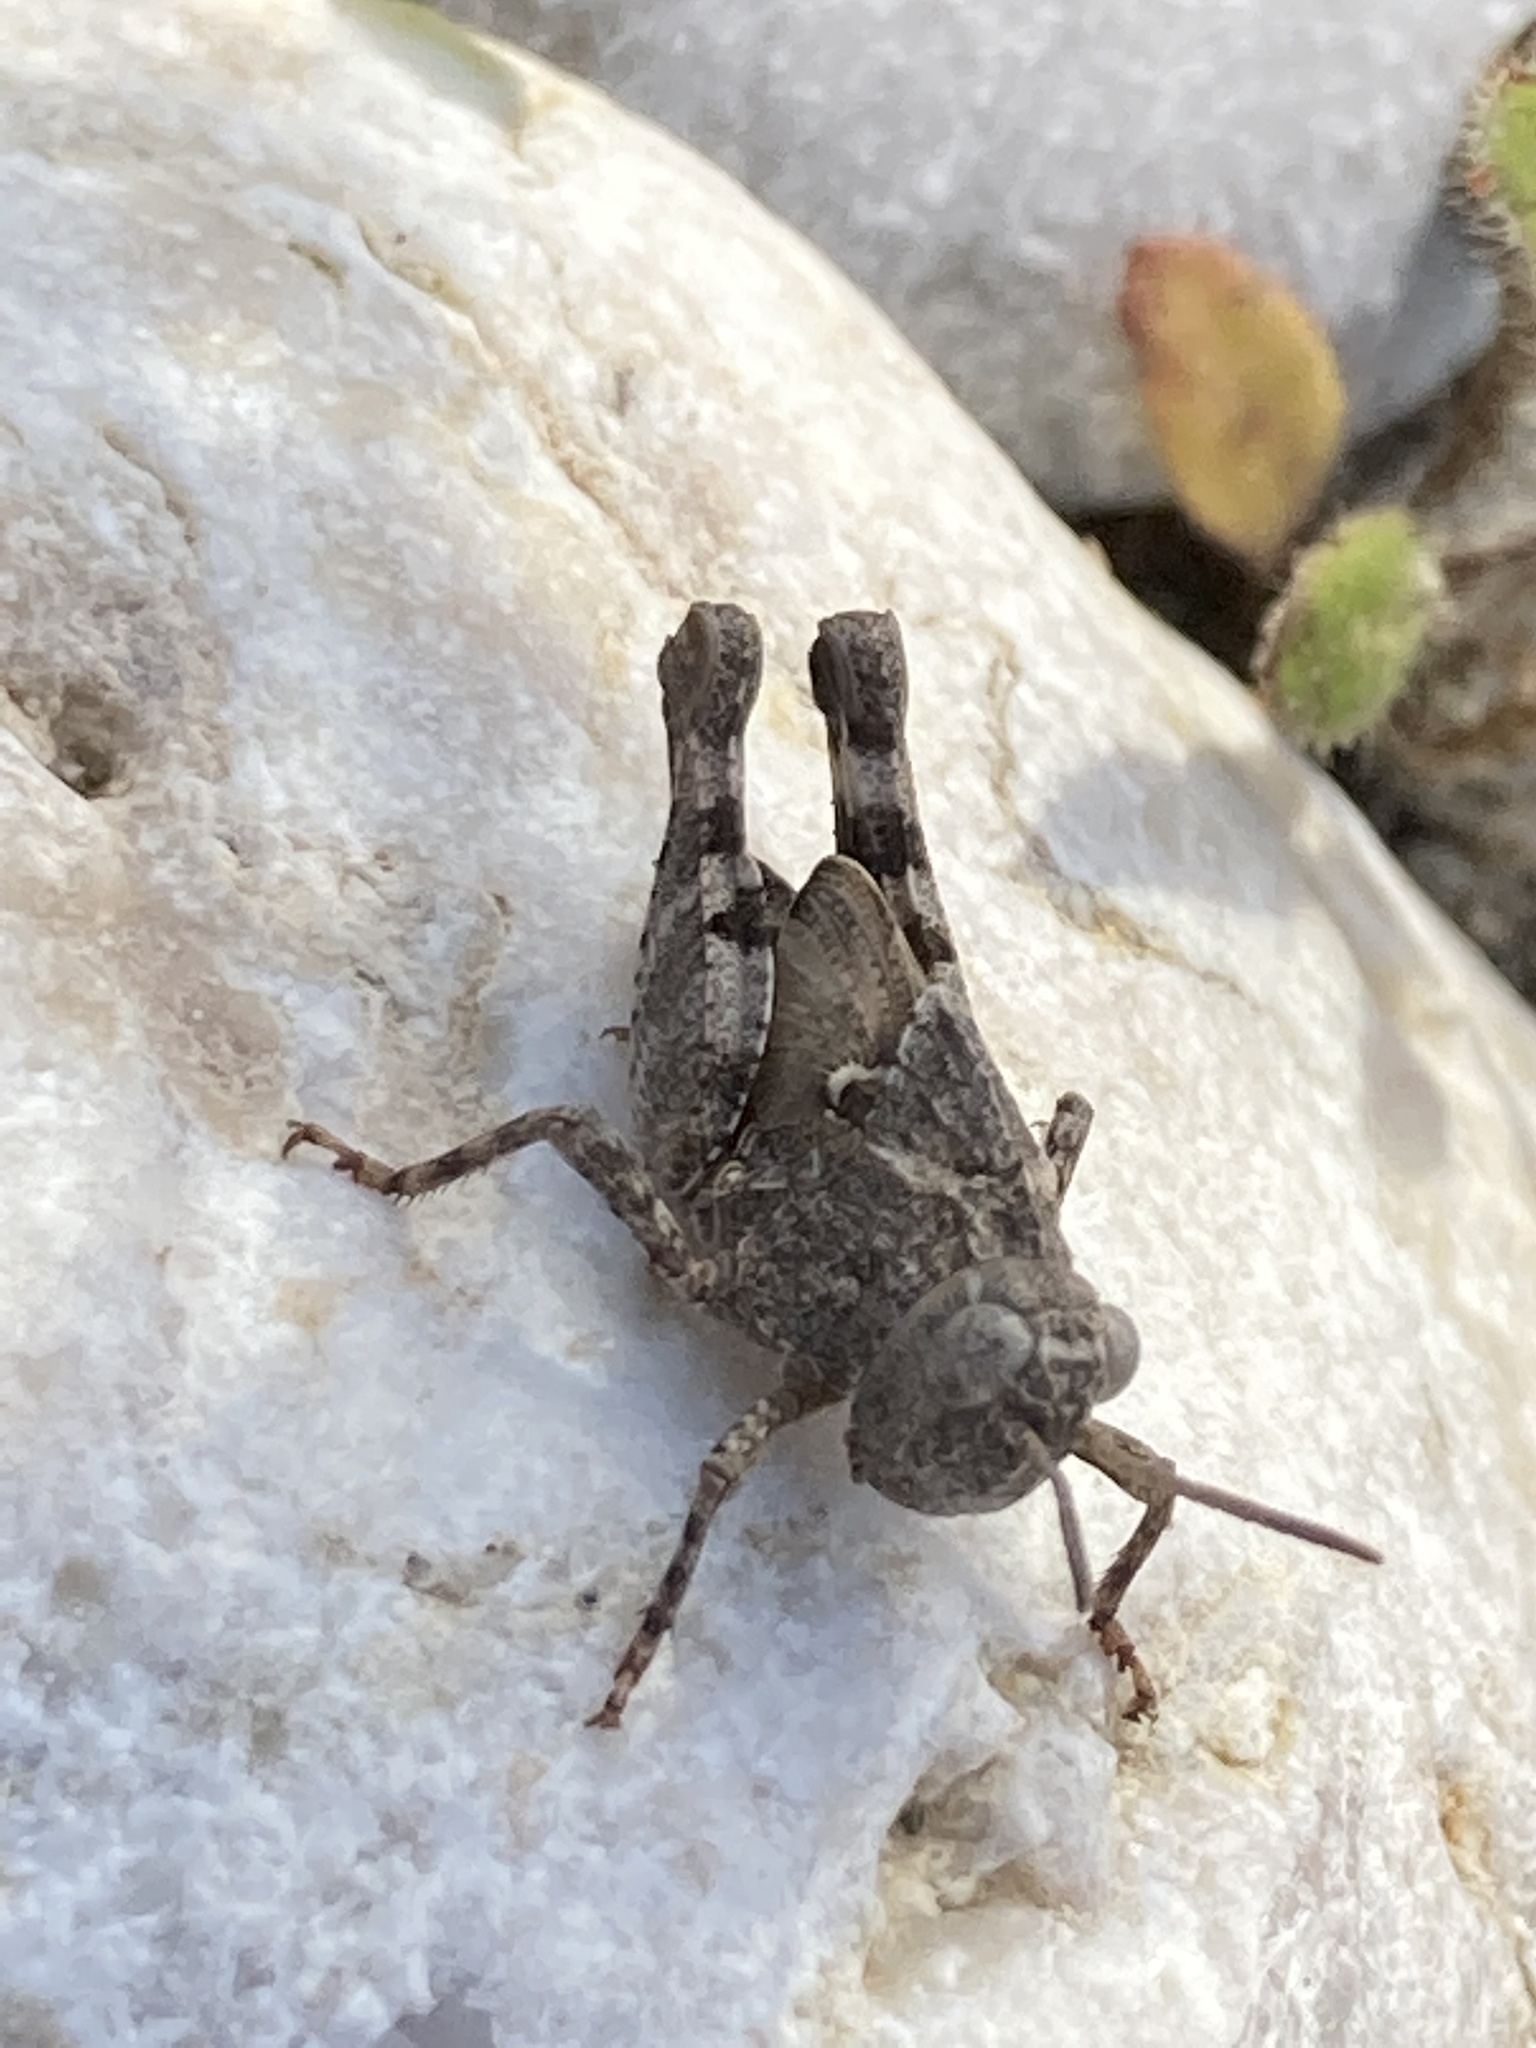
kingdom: Animalia
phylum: Arthropoda
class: Insecta
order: Orthoptera
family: Acrididae
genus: Oedipoda
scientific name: Oedipoda
